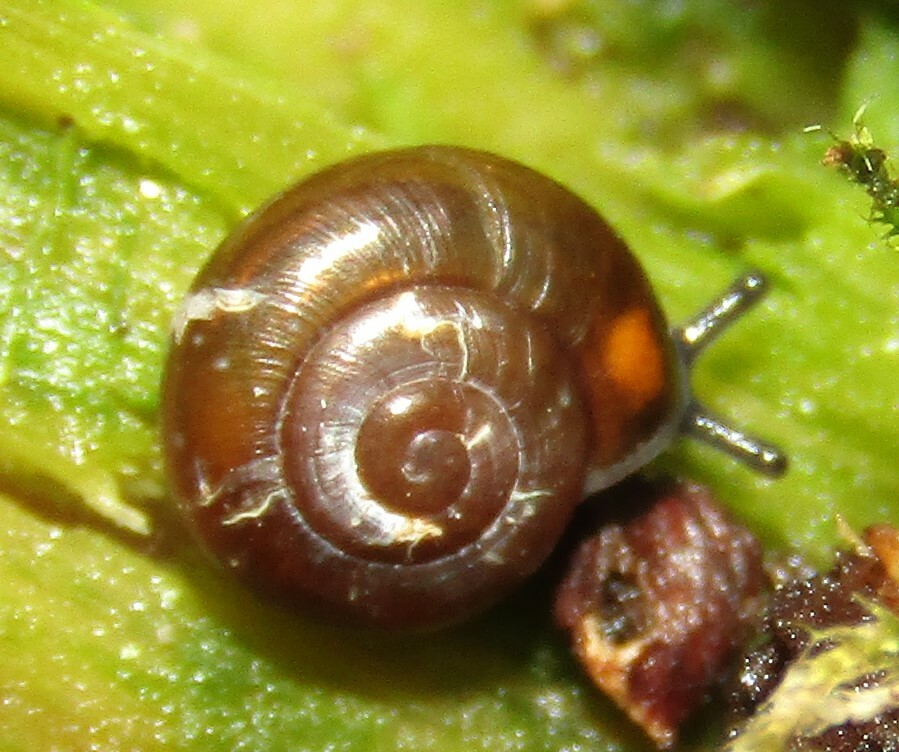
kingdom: Animalia
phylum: Mollusca
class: Gastropoda
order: Stylommatophora
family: Gastrodontidae
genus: Zonitoides
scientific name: Zonitoides nitidus
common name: Shiny glass snail
